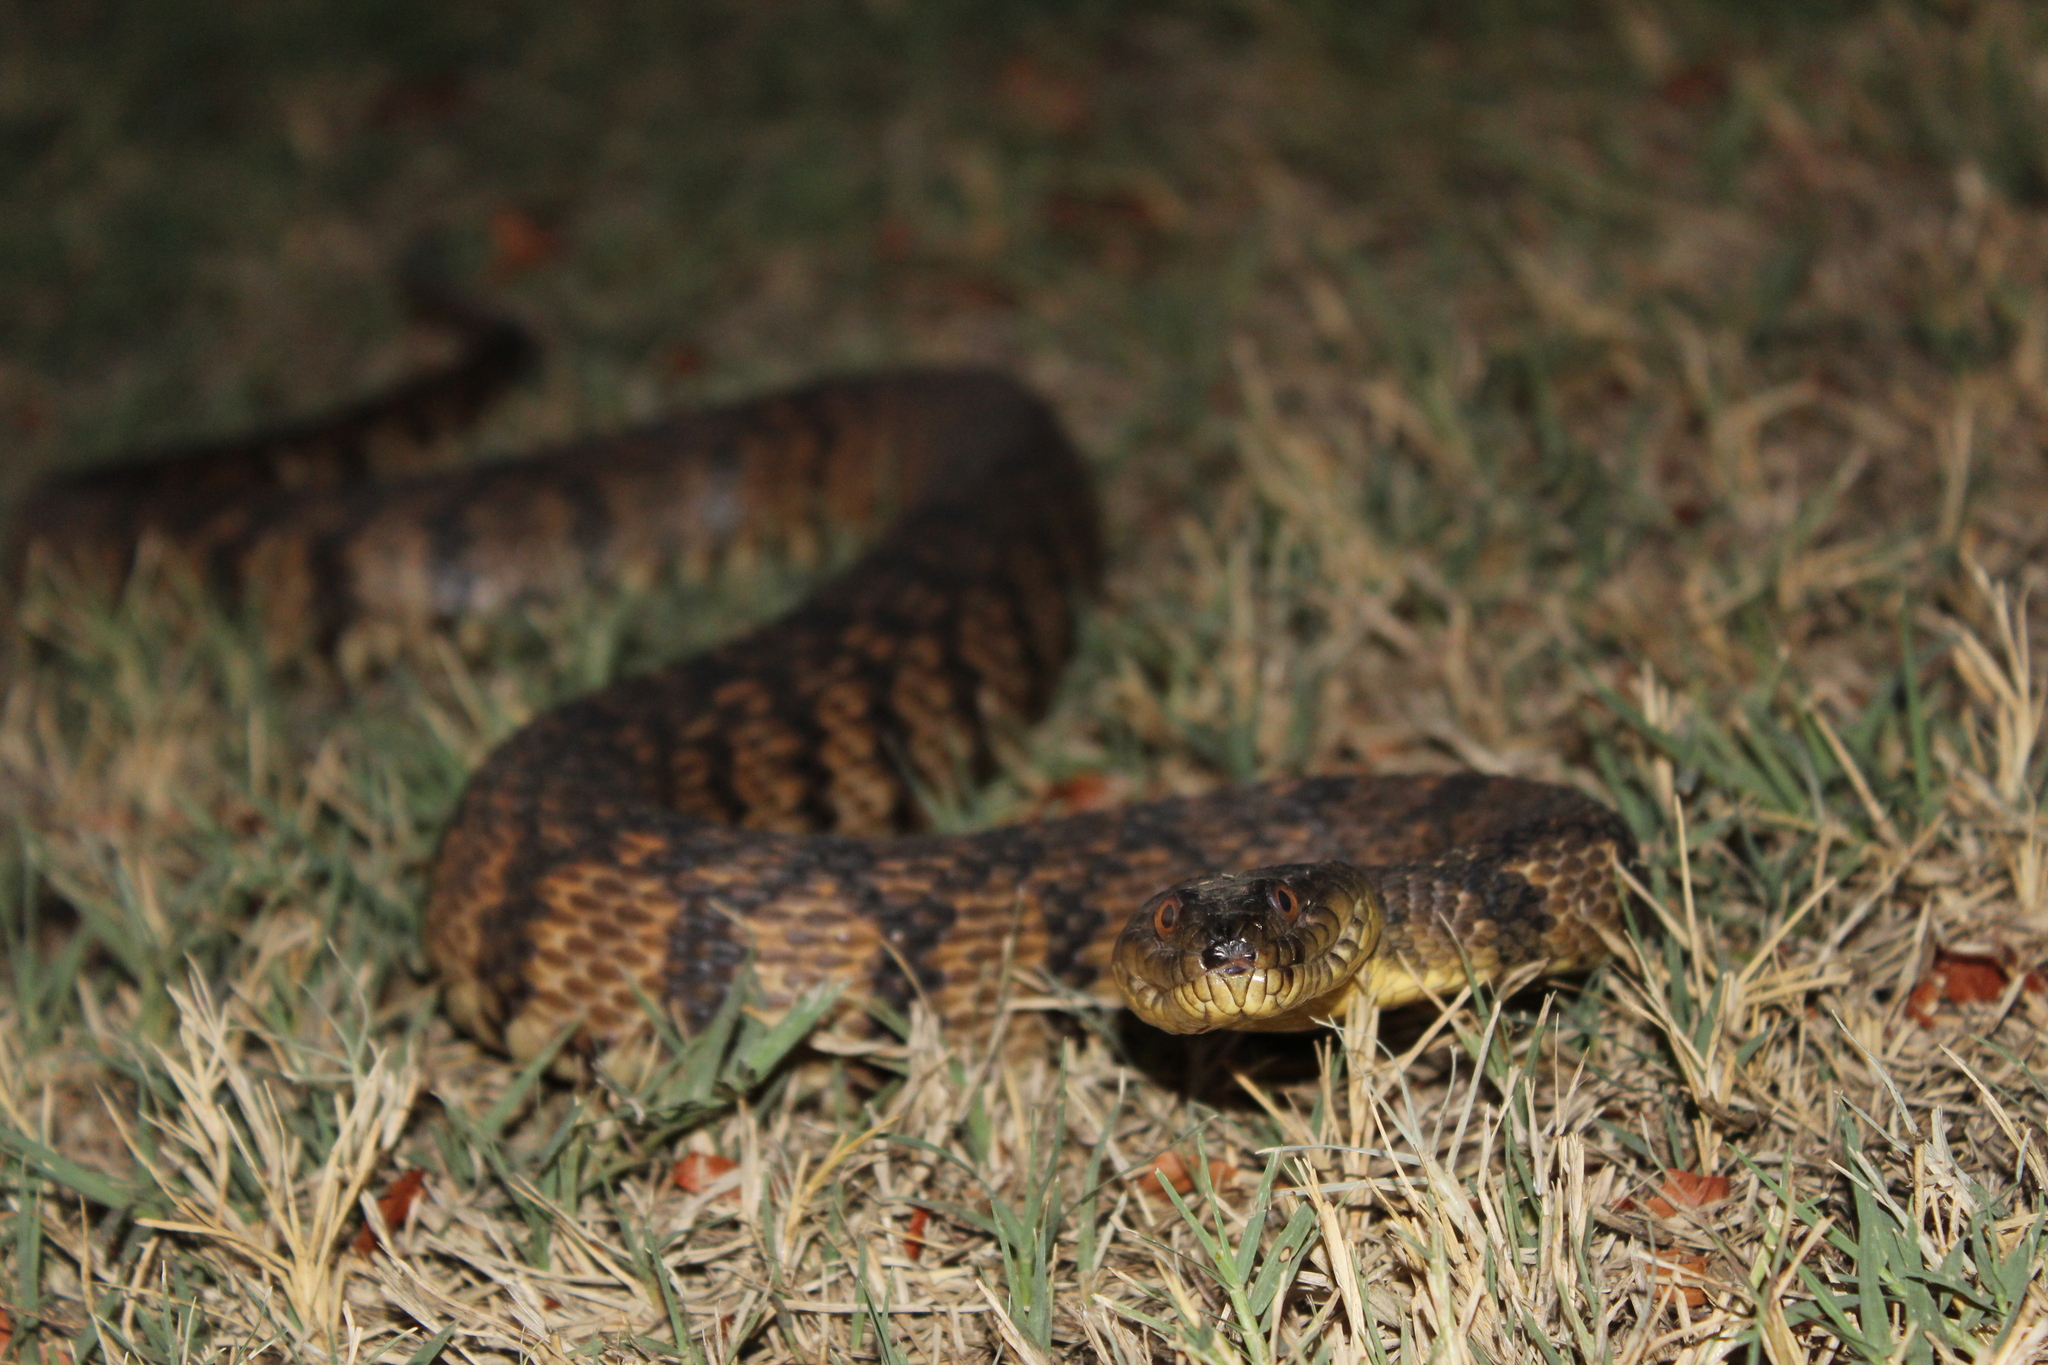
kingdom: Animalia
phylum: Chordata
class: Squamata
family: Colubridae
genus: Nerodia
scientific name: Nerodia rhombifer
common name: Diamondback water snake
